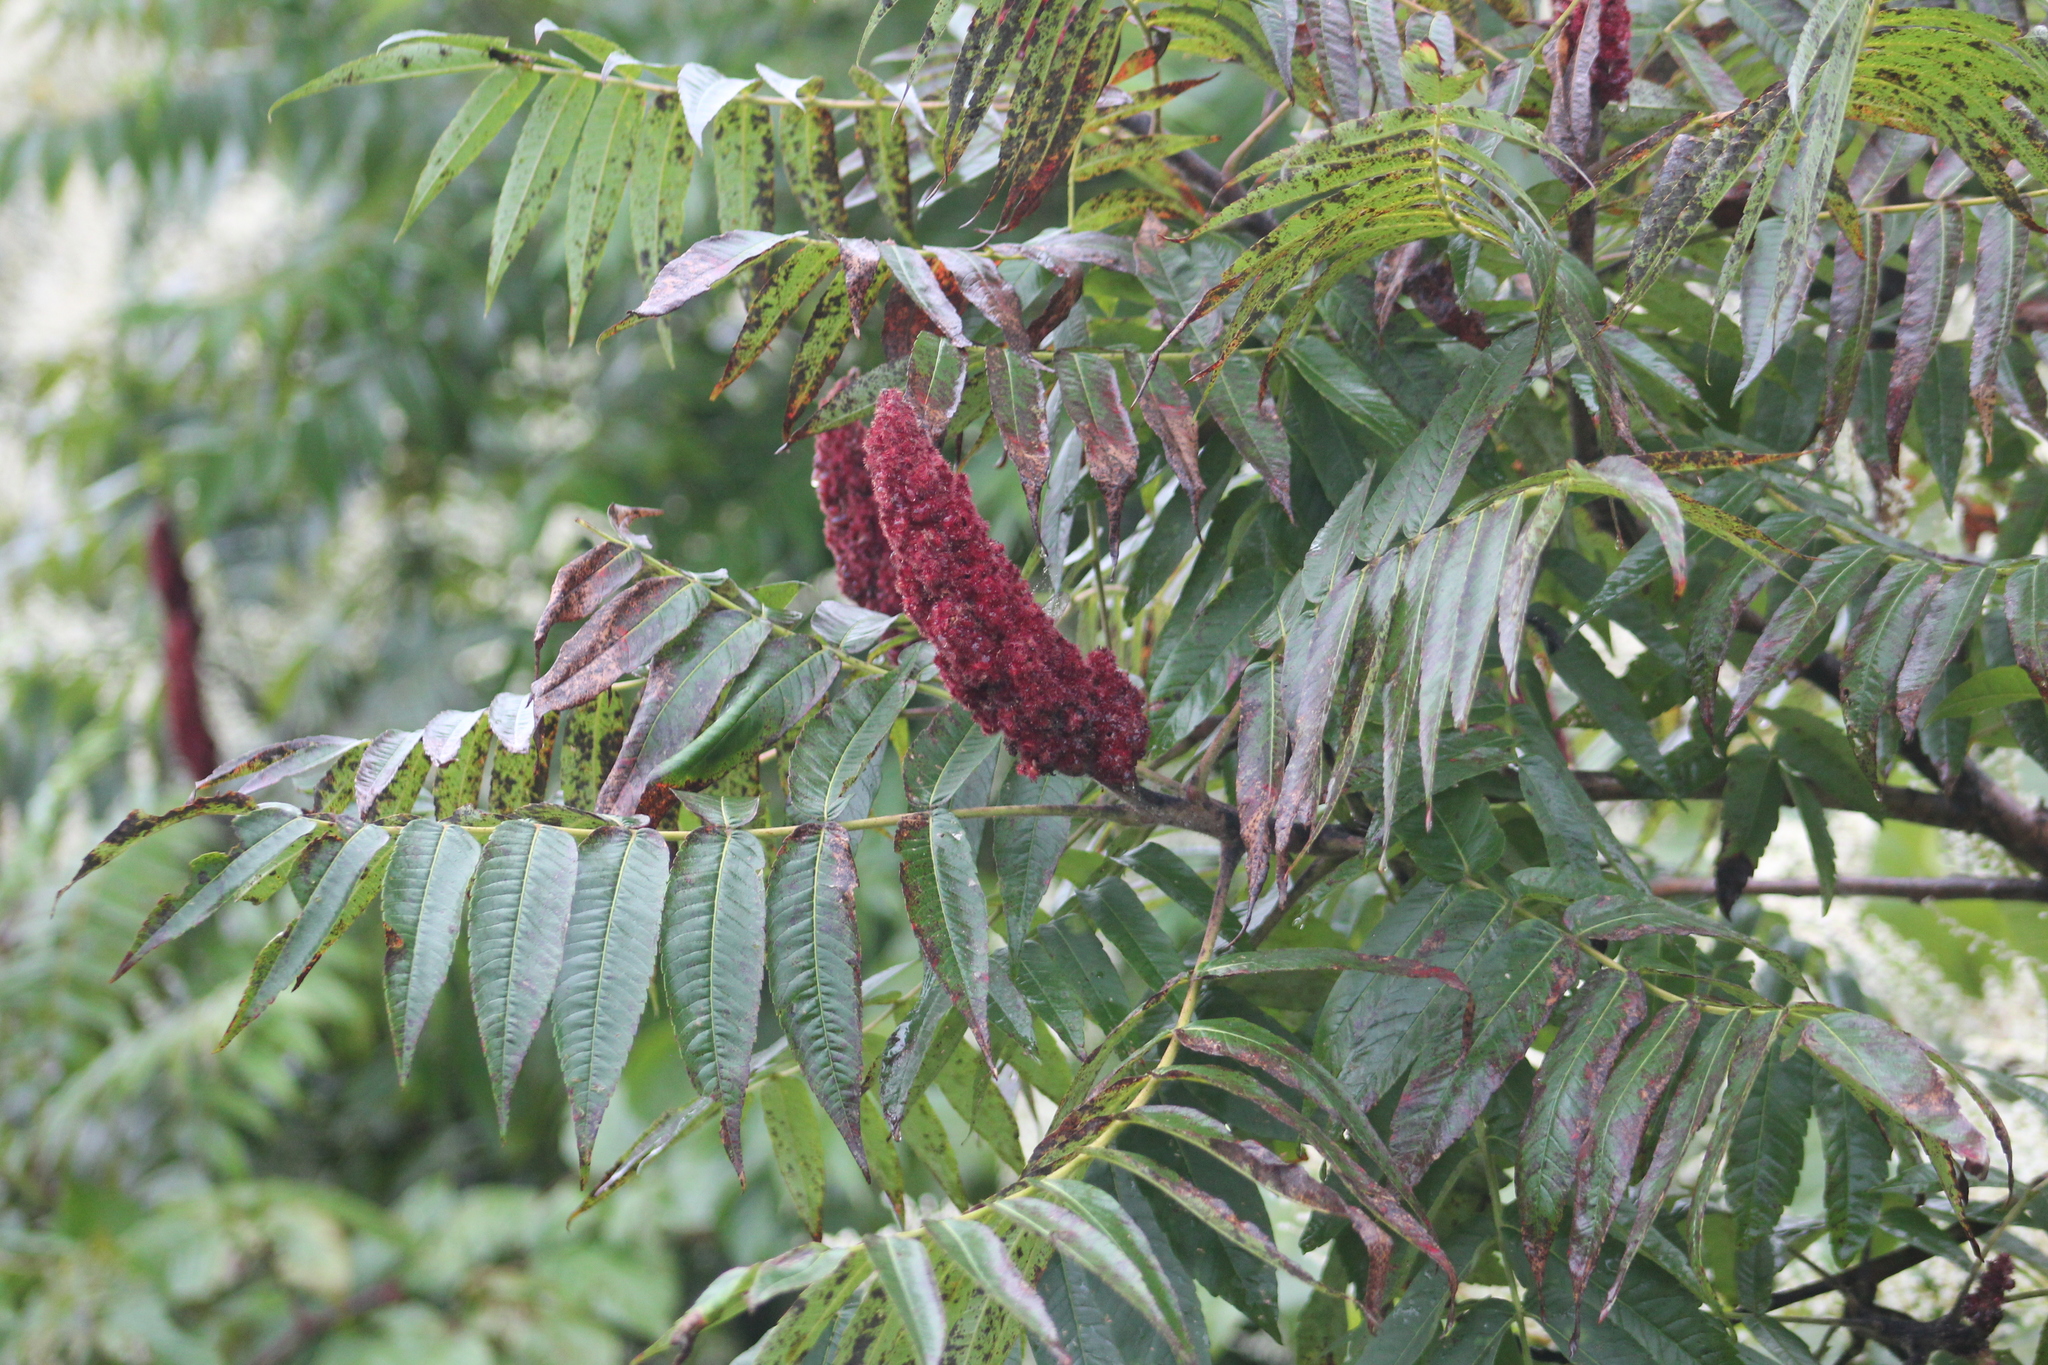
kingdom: Plantae
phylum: Tracheophyta
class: Magnoliopsida
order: Sapindales
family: Anacardiaceae
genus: Rhus
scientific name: Rhus typhina
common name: Staghorn sumac
